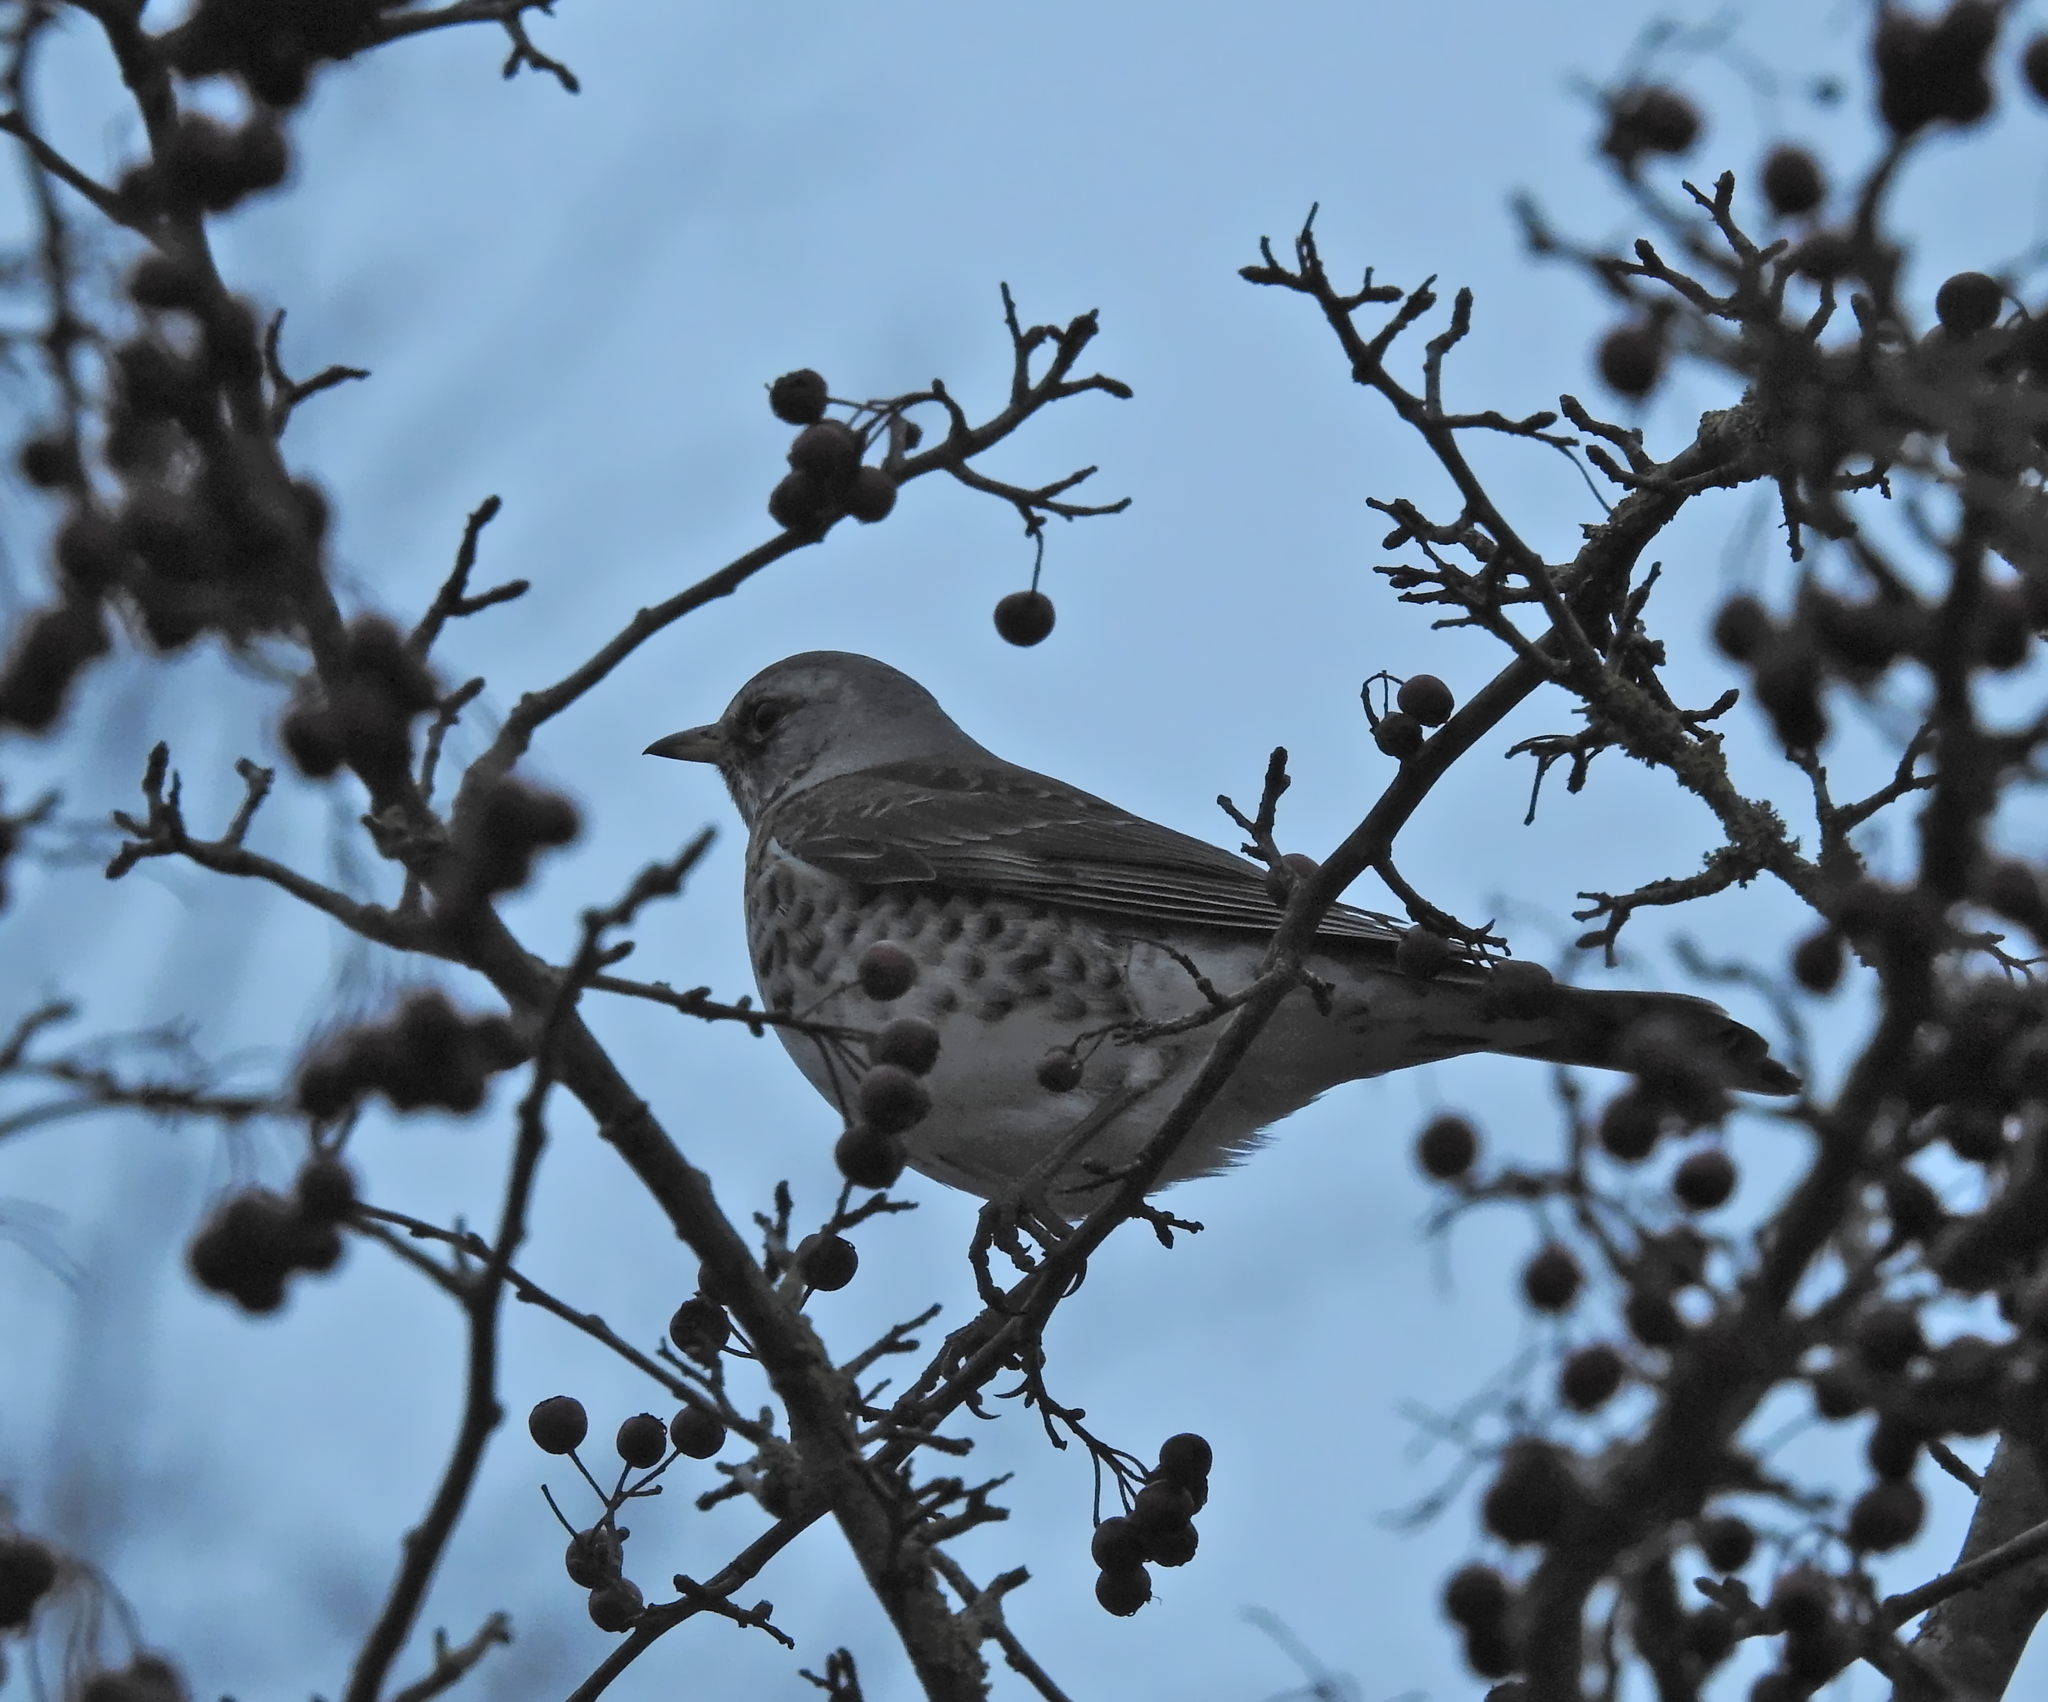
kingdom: Animalia
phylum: Chordata
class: Aves
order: Passeriformes
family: Turdidae
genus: Turdus
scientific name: Turdus pilaris
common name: Fieldfare
